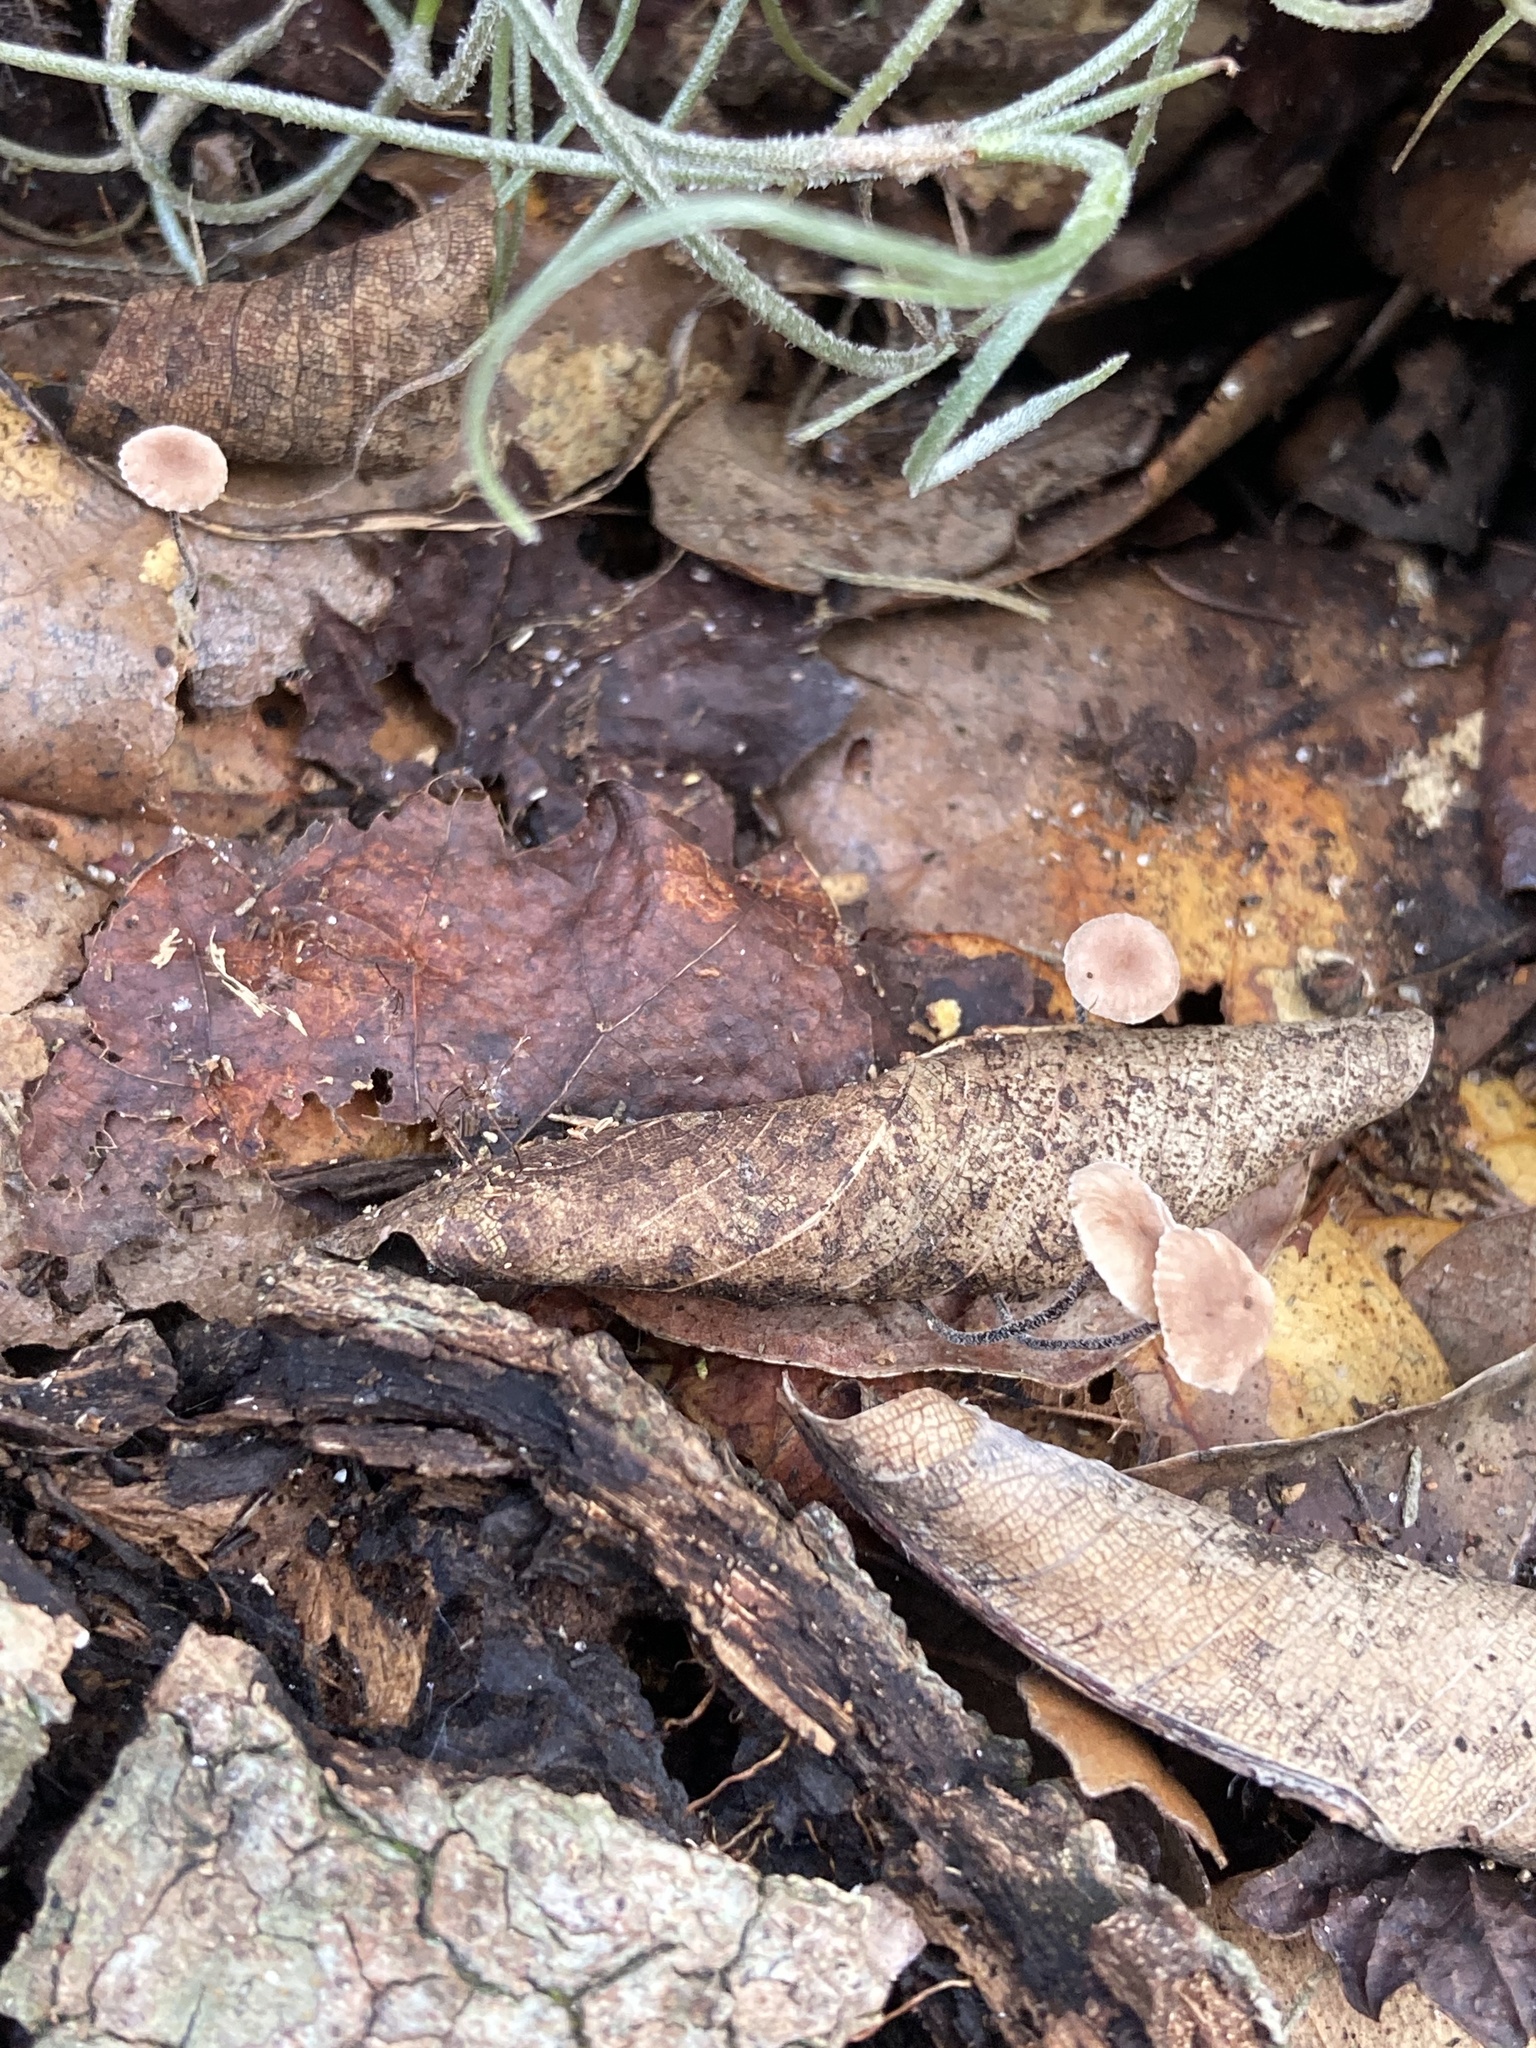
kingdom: Fungi
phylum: Basidiomycota
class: Agaricomycetes
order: Agaricales
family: Omphalotaceae
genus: Collybiopsis
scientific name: Collybiopsis quercophila
